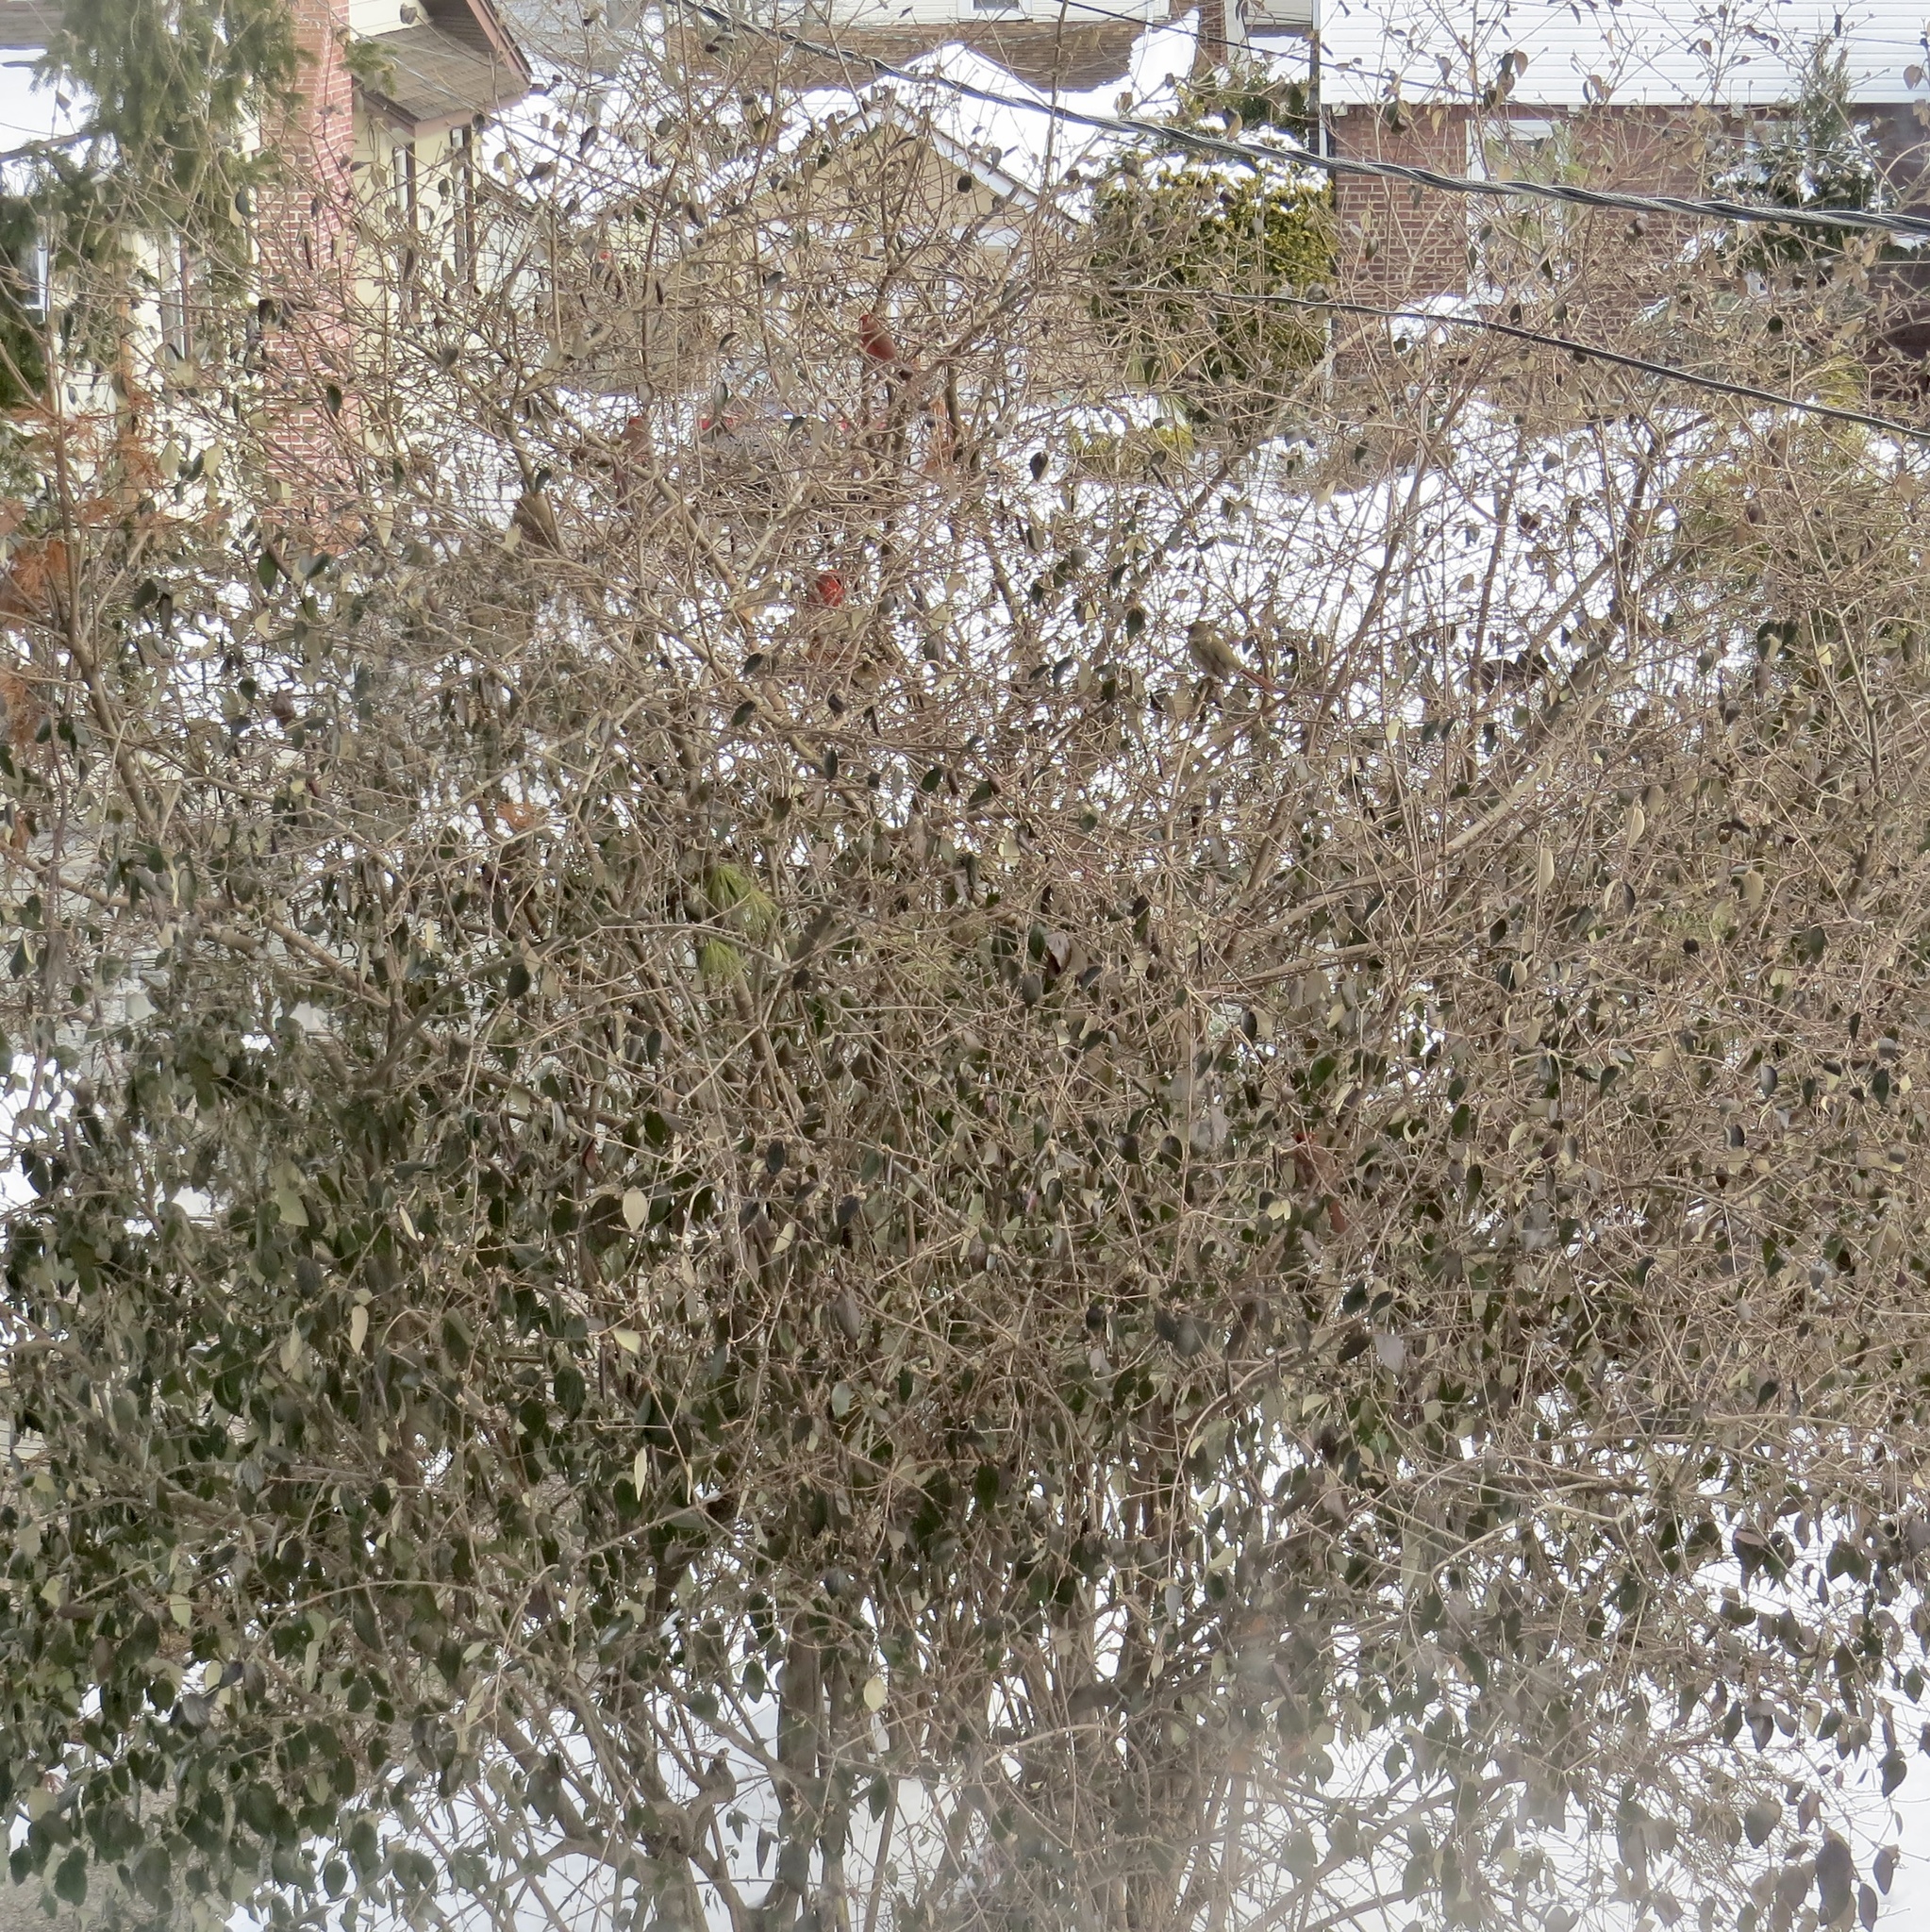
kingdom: Animalia
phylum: Chordata
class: Aves
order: Passeriformes
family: Cardinalidae
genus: Cardinalis
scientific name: Cardinalis cardinalis
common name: Northern cardinal
